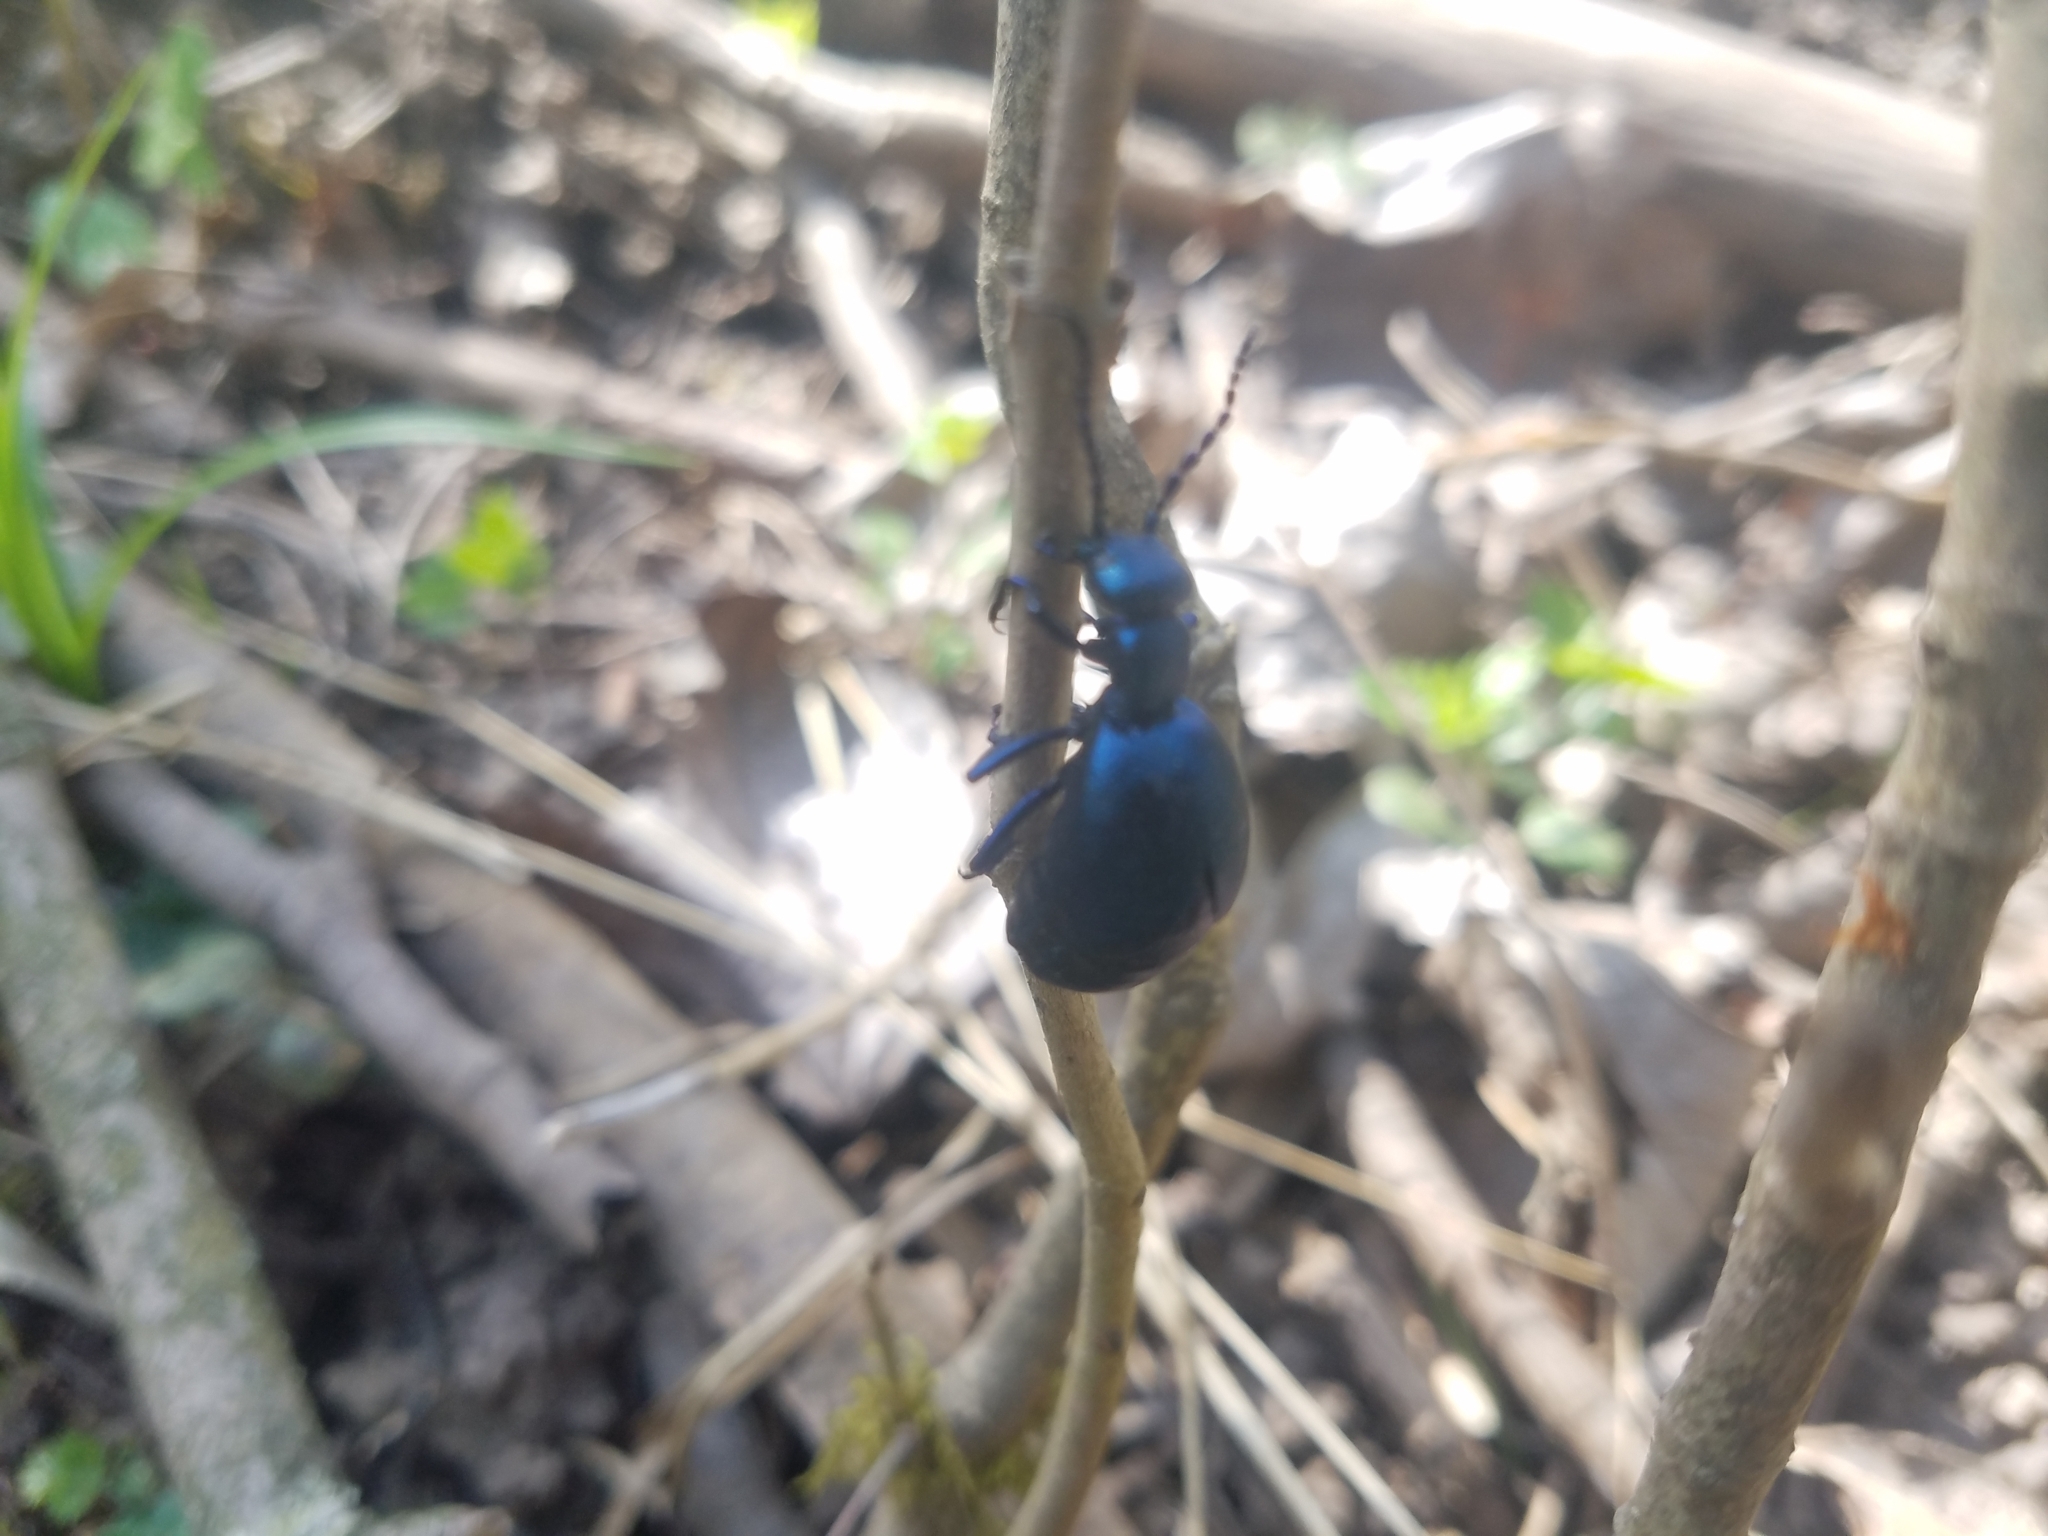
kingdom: Animalia
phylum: Arthropoda
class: Insecta
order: Coleoptera
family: Meloidae
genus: Meloe
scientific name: Meloe violaceus
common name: Violet oil-beetle
